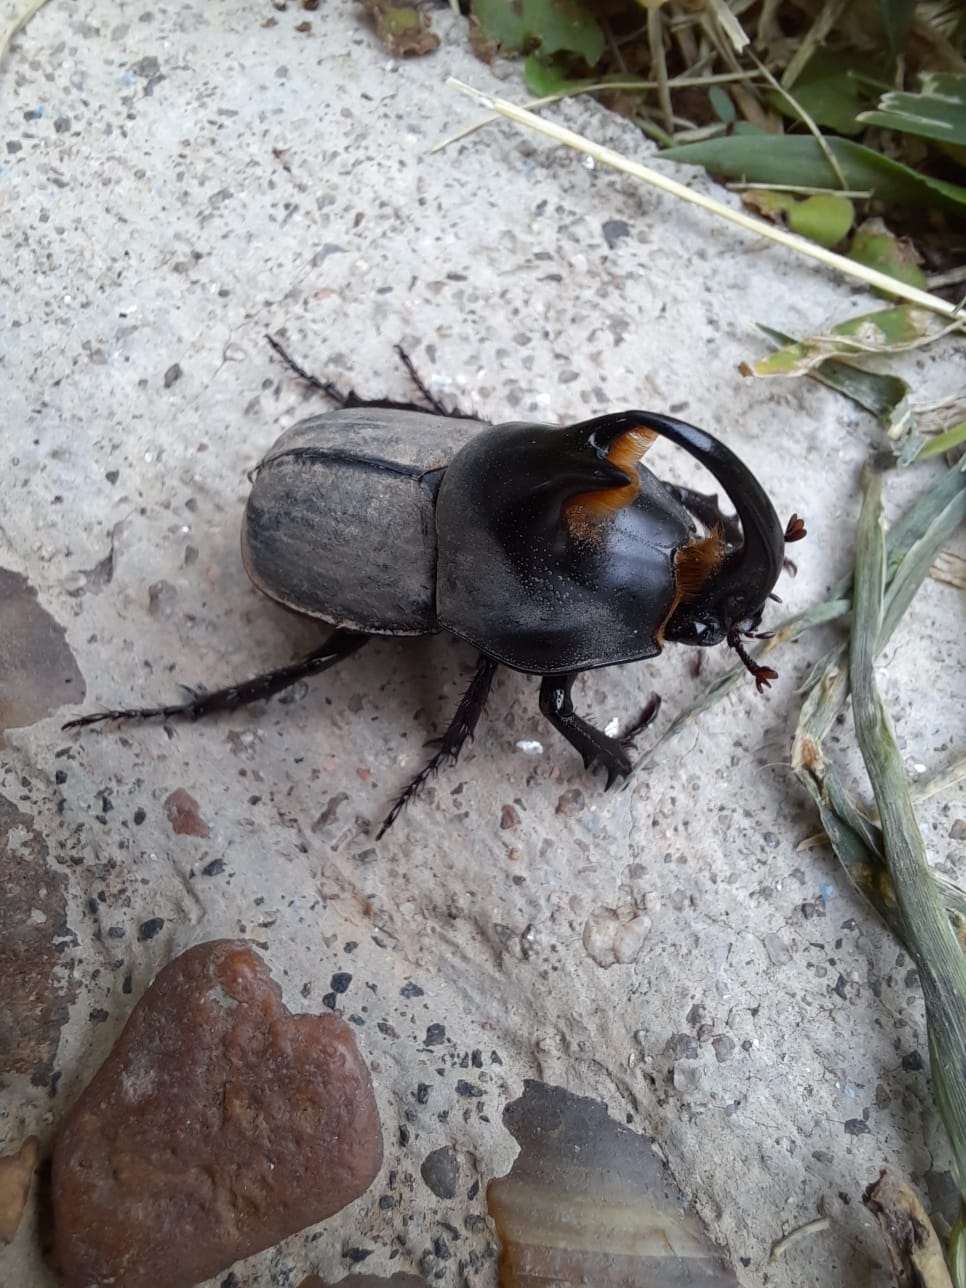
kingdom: Animalia
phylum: Arthropoda
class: Insecta
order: Coleoptera
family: Scarabaeidae
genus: Diloboderus
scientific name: Diloboderus abderus
